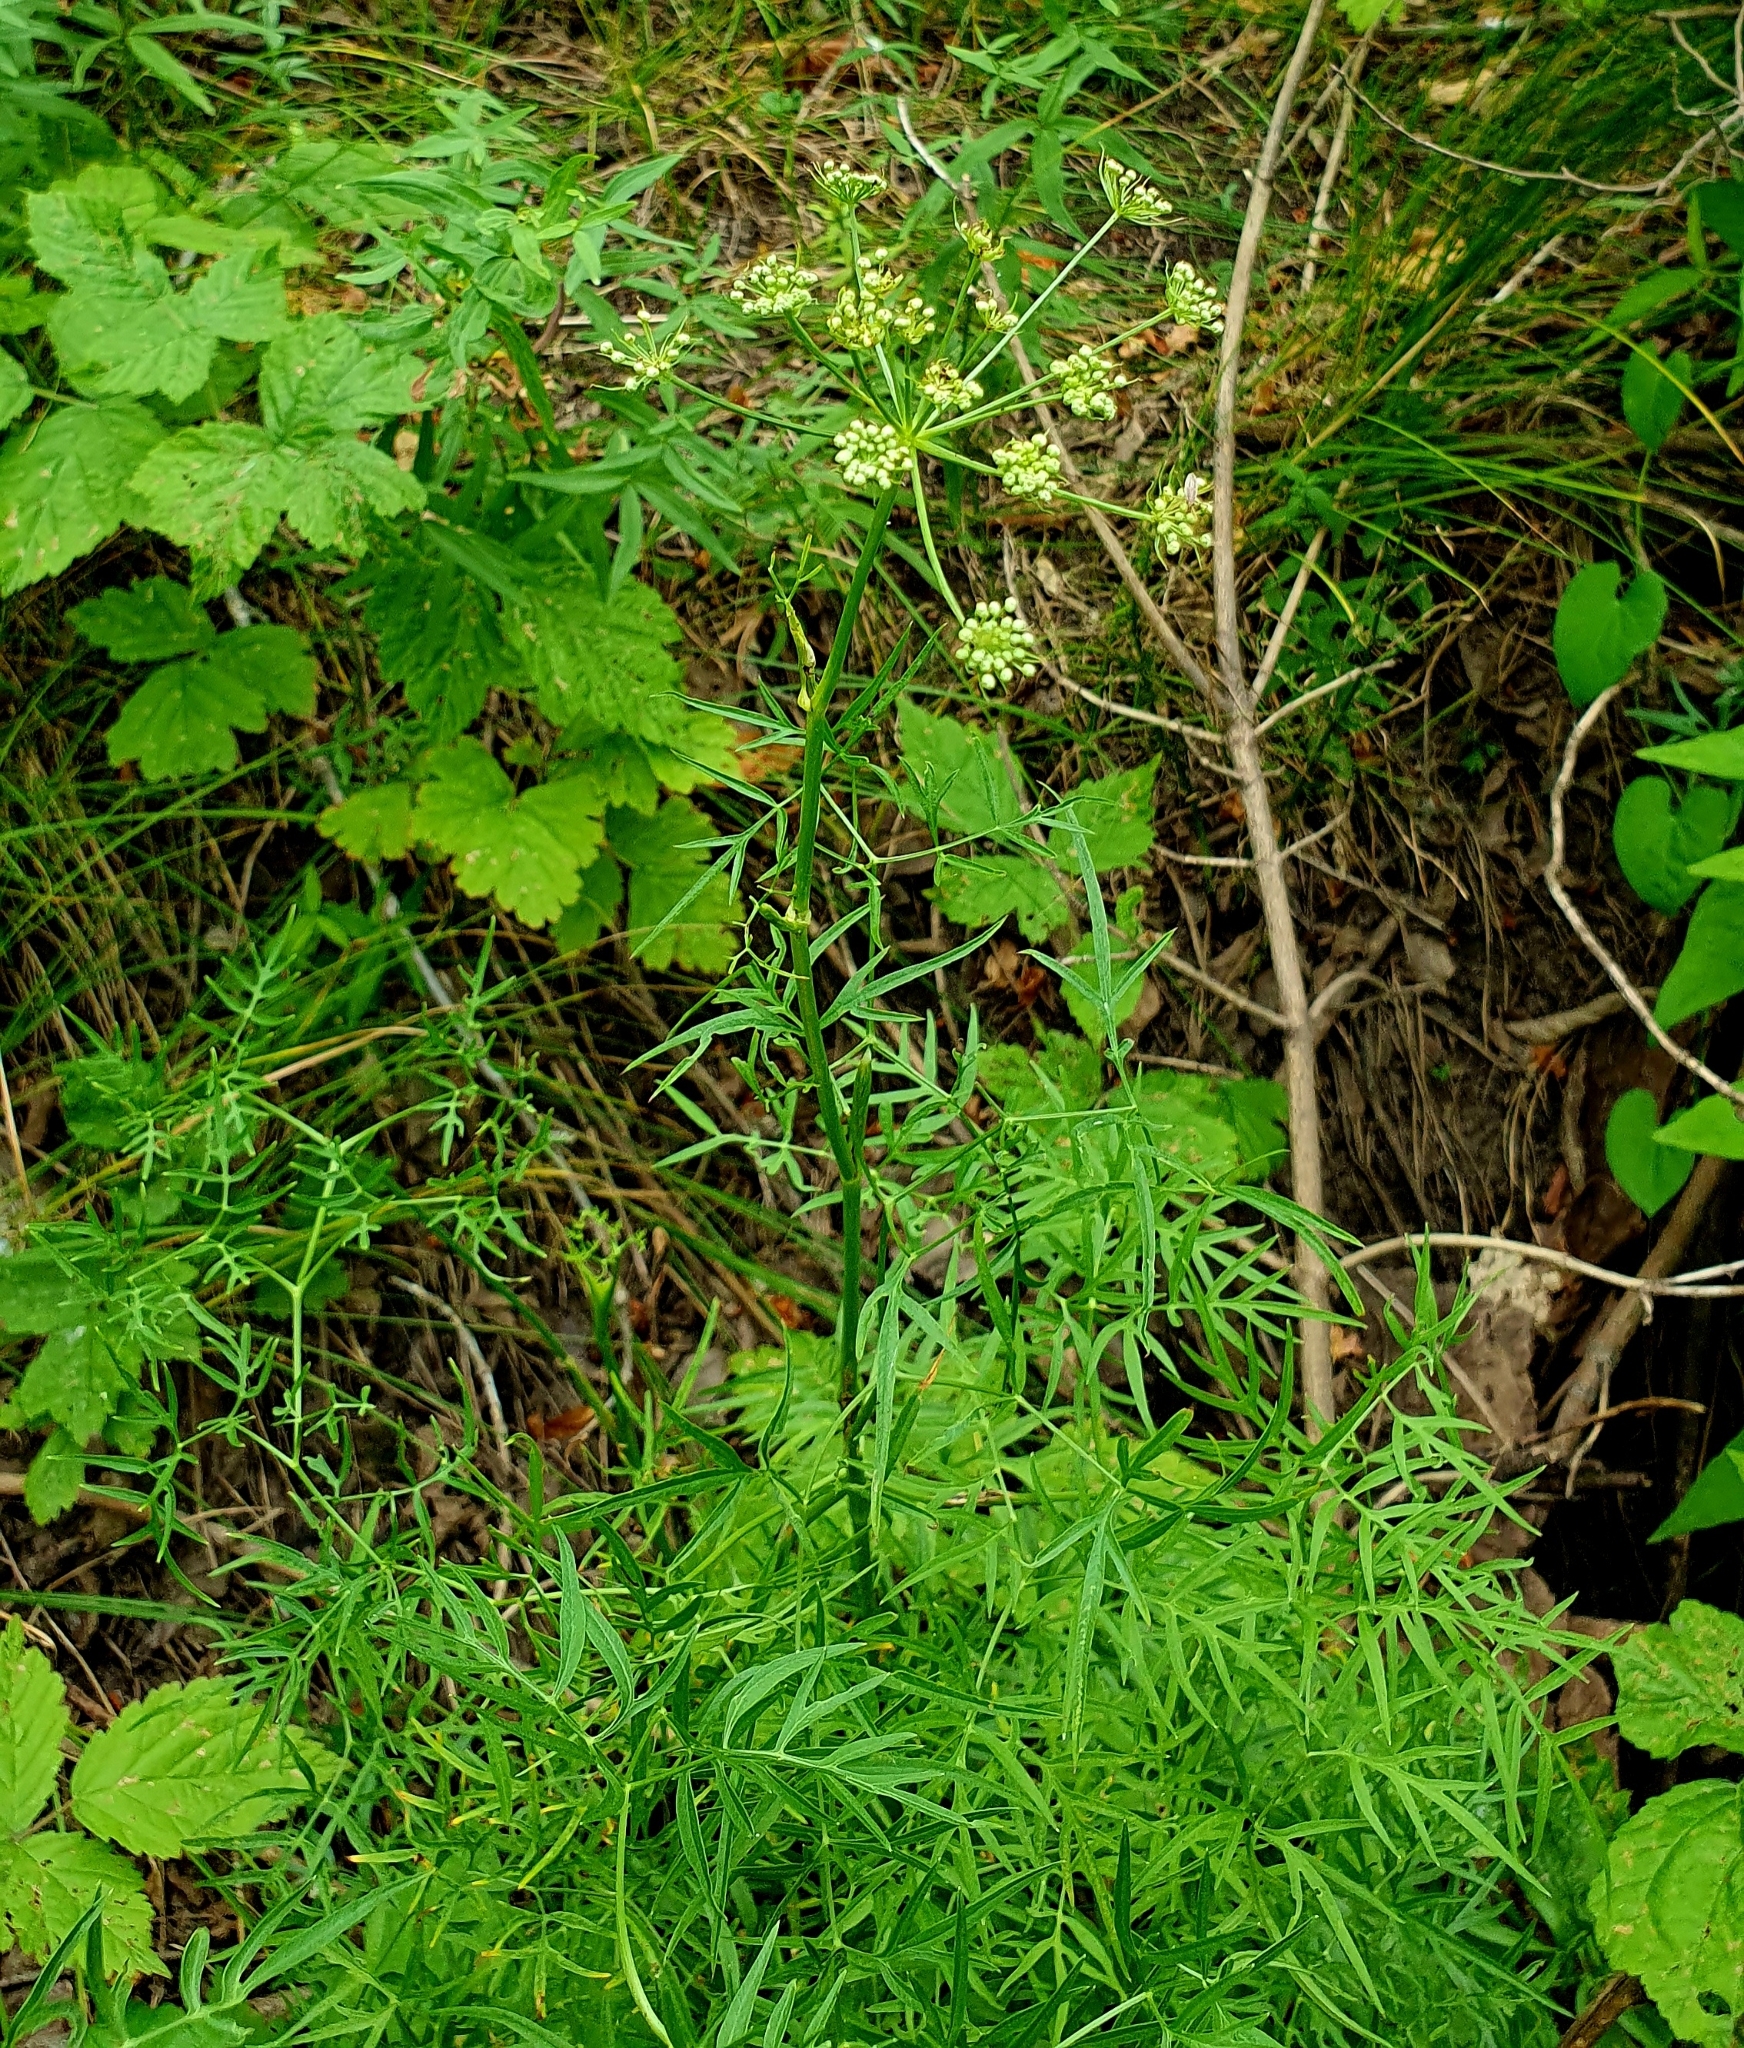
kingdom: Plantae
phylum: Tracheophyta
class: Magnoliopsida
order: Apiales
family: Apiaceae
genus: Cenolophium
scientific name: Cenolophium fischeri
